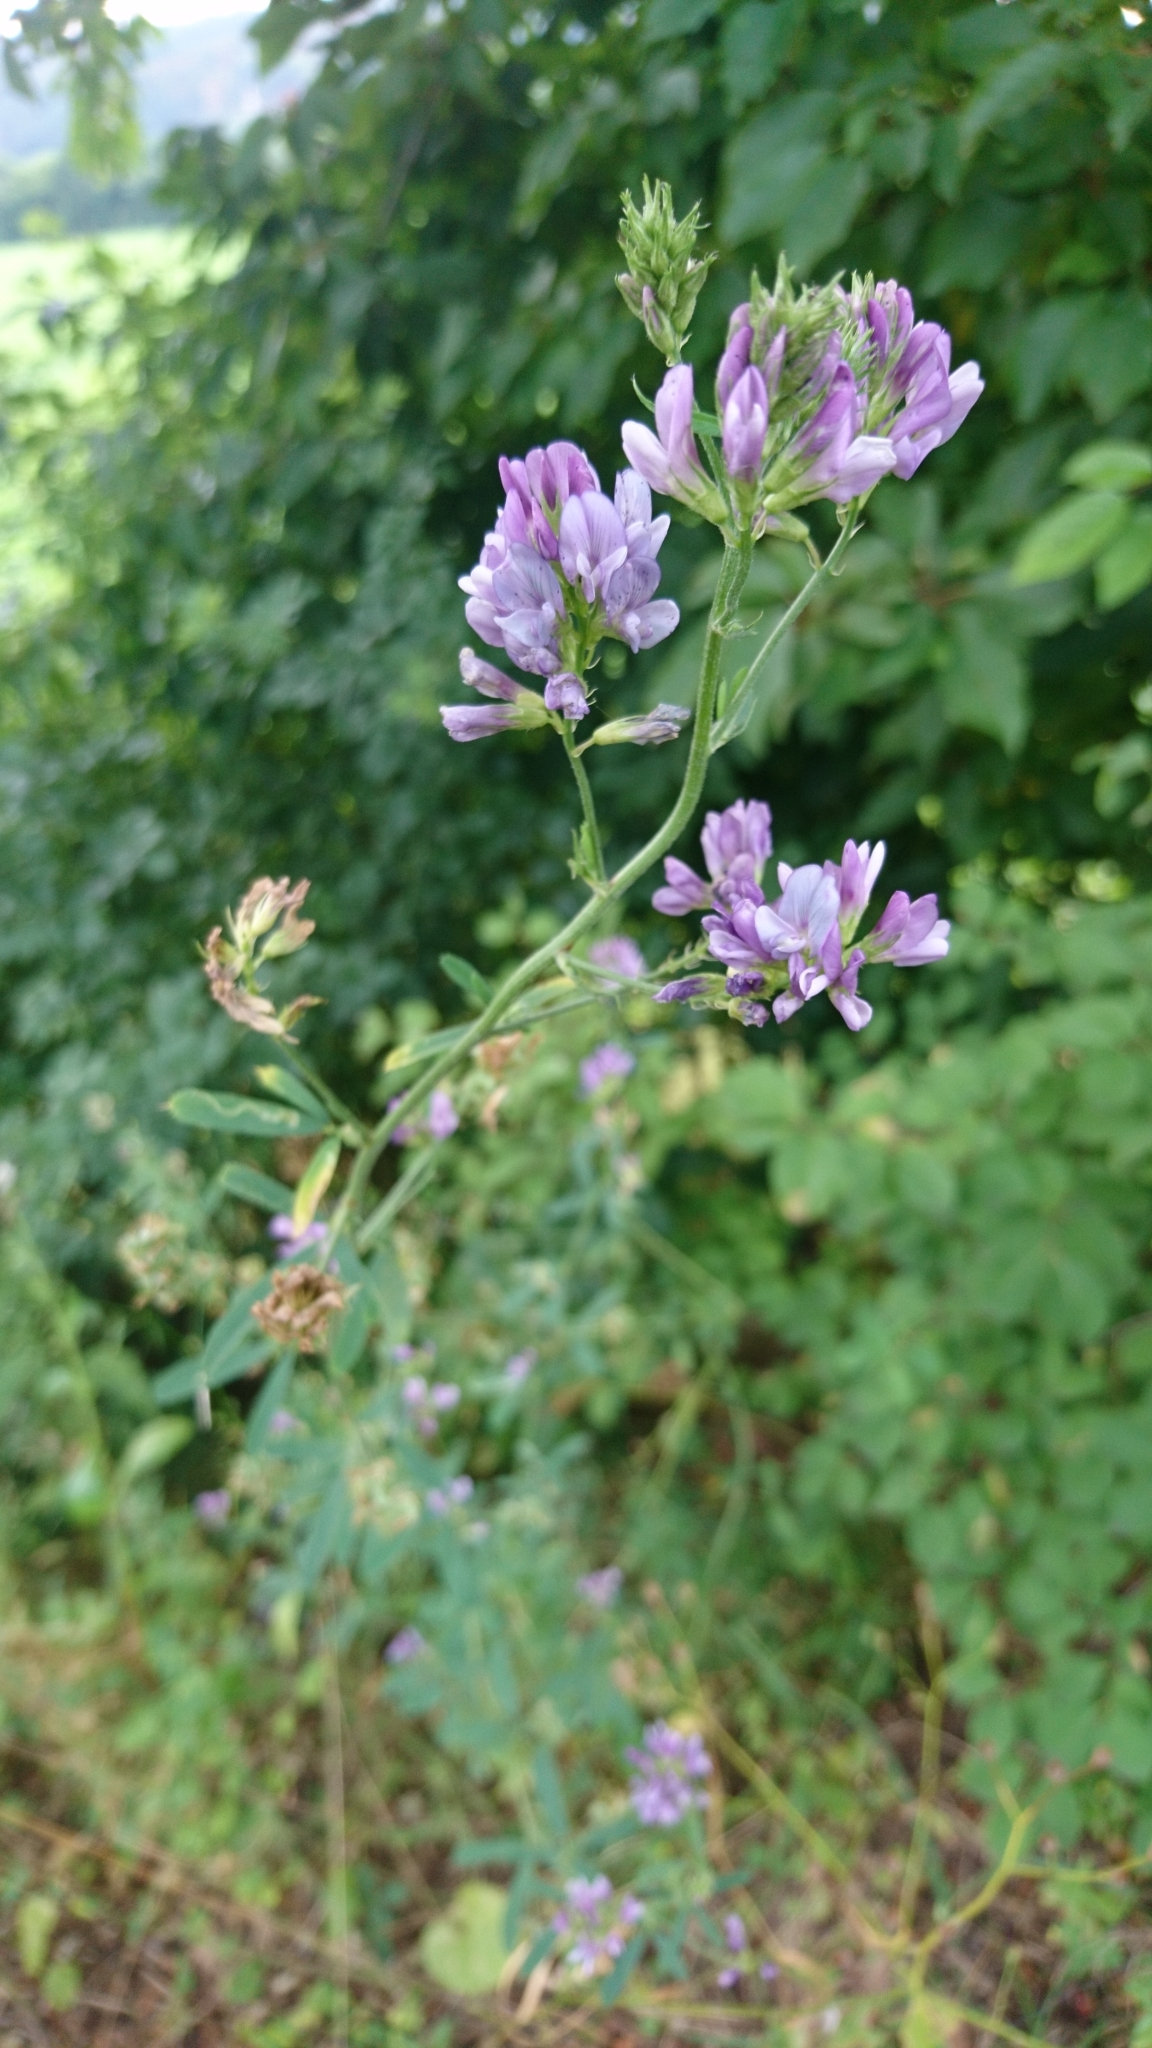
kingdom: Plantae
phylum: Tracheophyta
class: Magnoliopsida
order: Fabales
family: Fabaceae
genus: Medicago
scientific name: Medicago sativa
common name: Alfalfa
